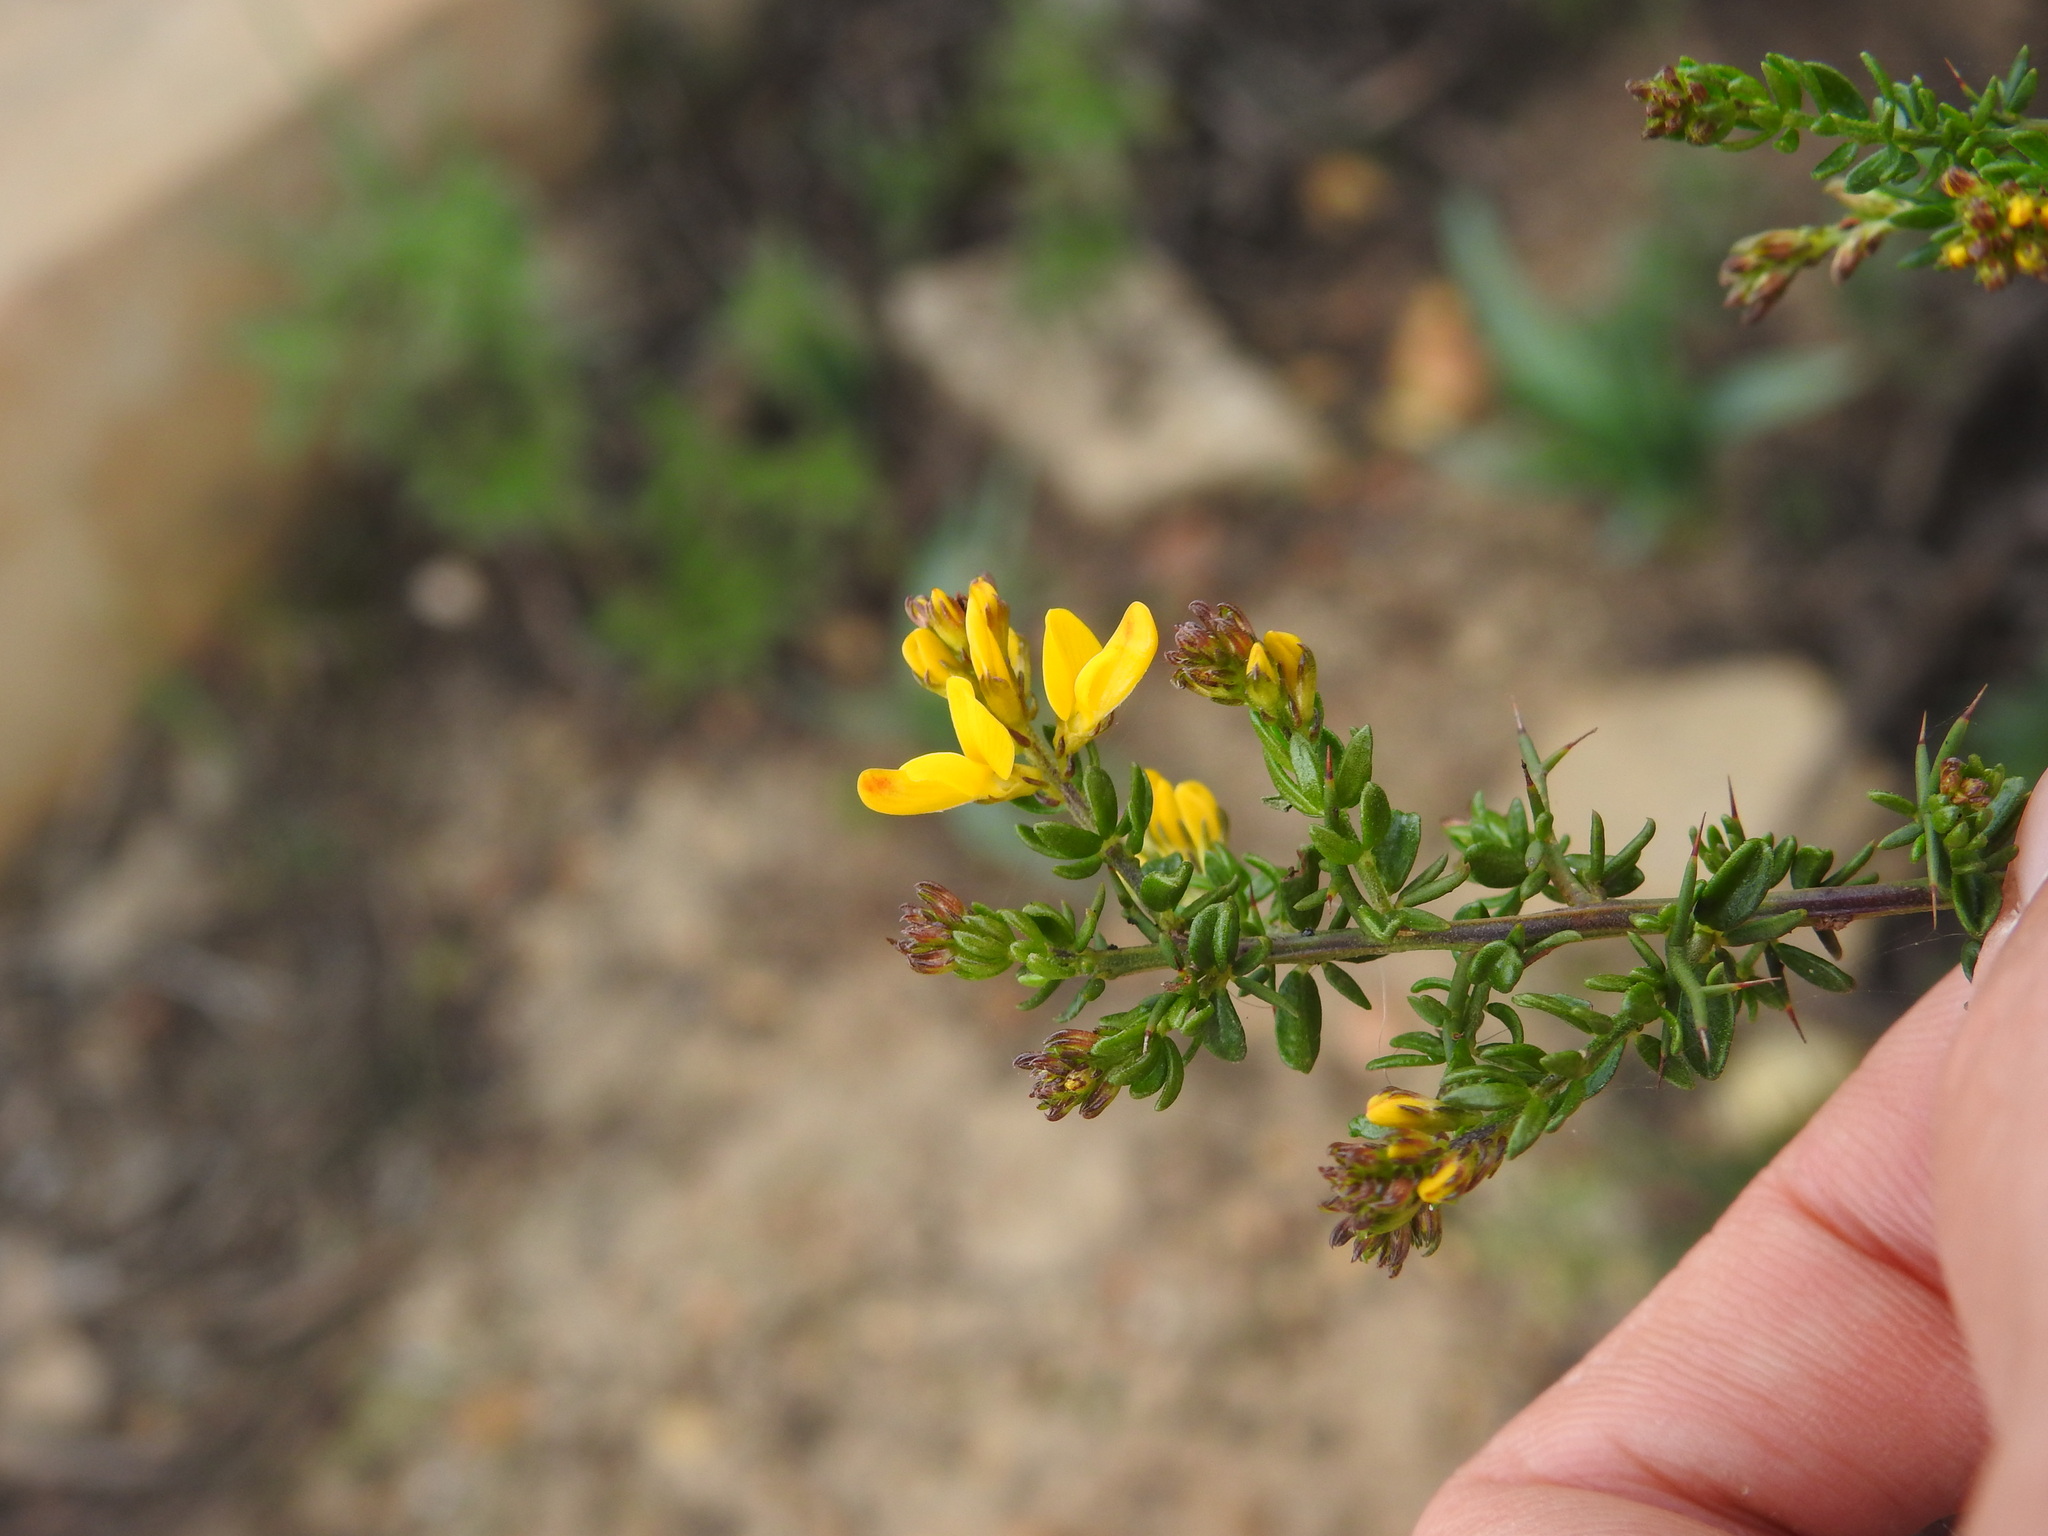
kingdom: Plantae
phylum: Tracheophyta
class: Magnoliopsida
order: Fabales
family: Fabaceae
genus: Genista
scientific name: Genista triacanthos
